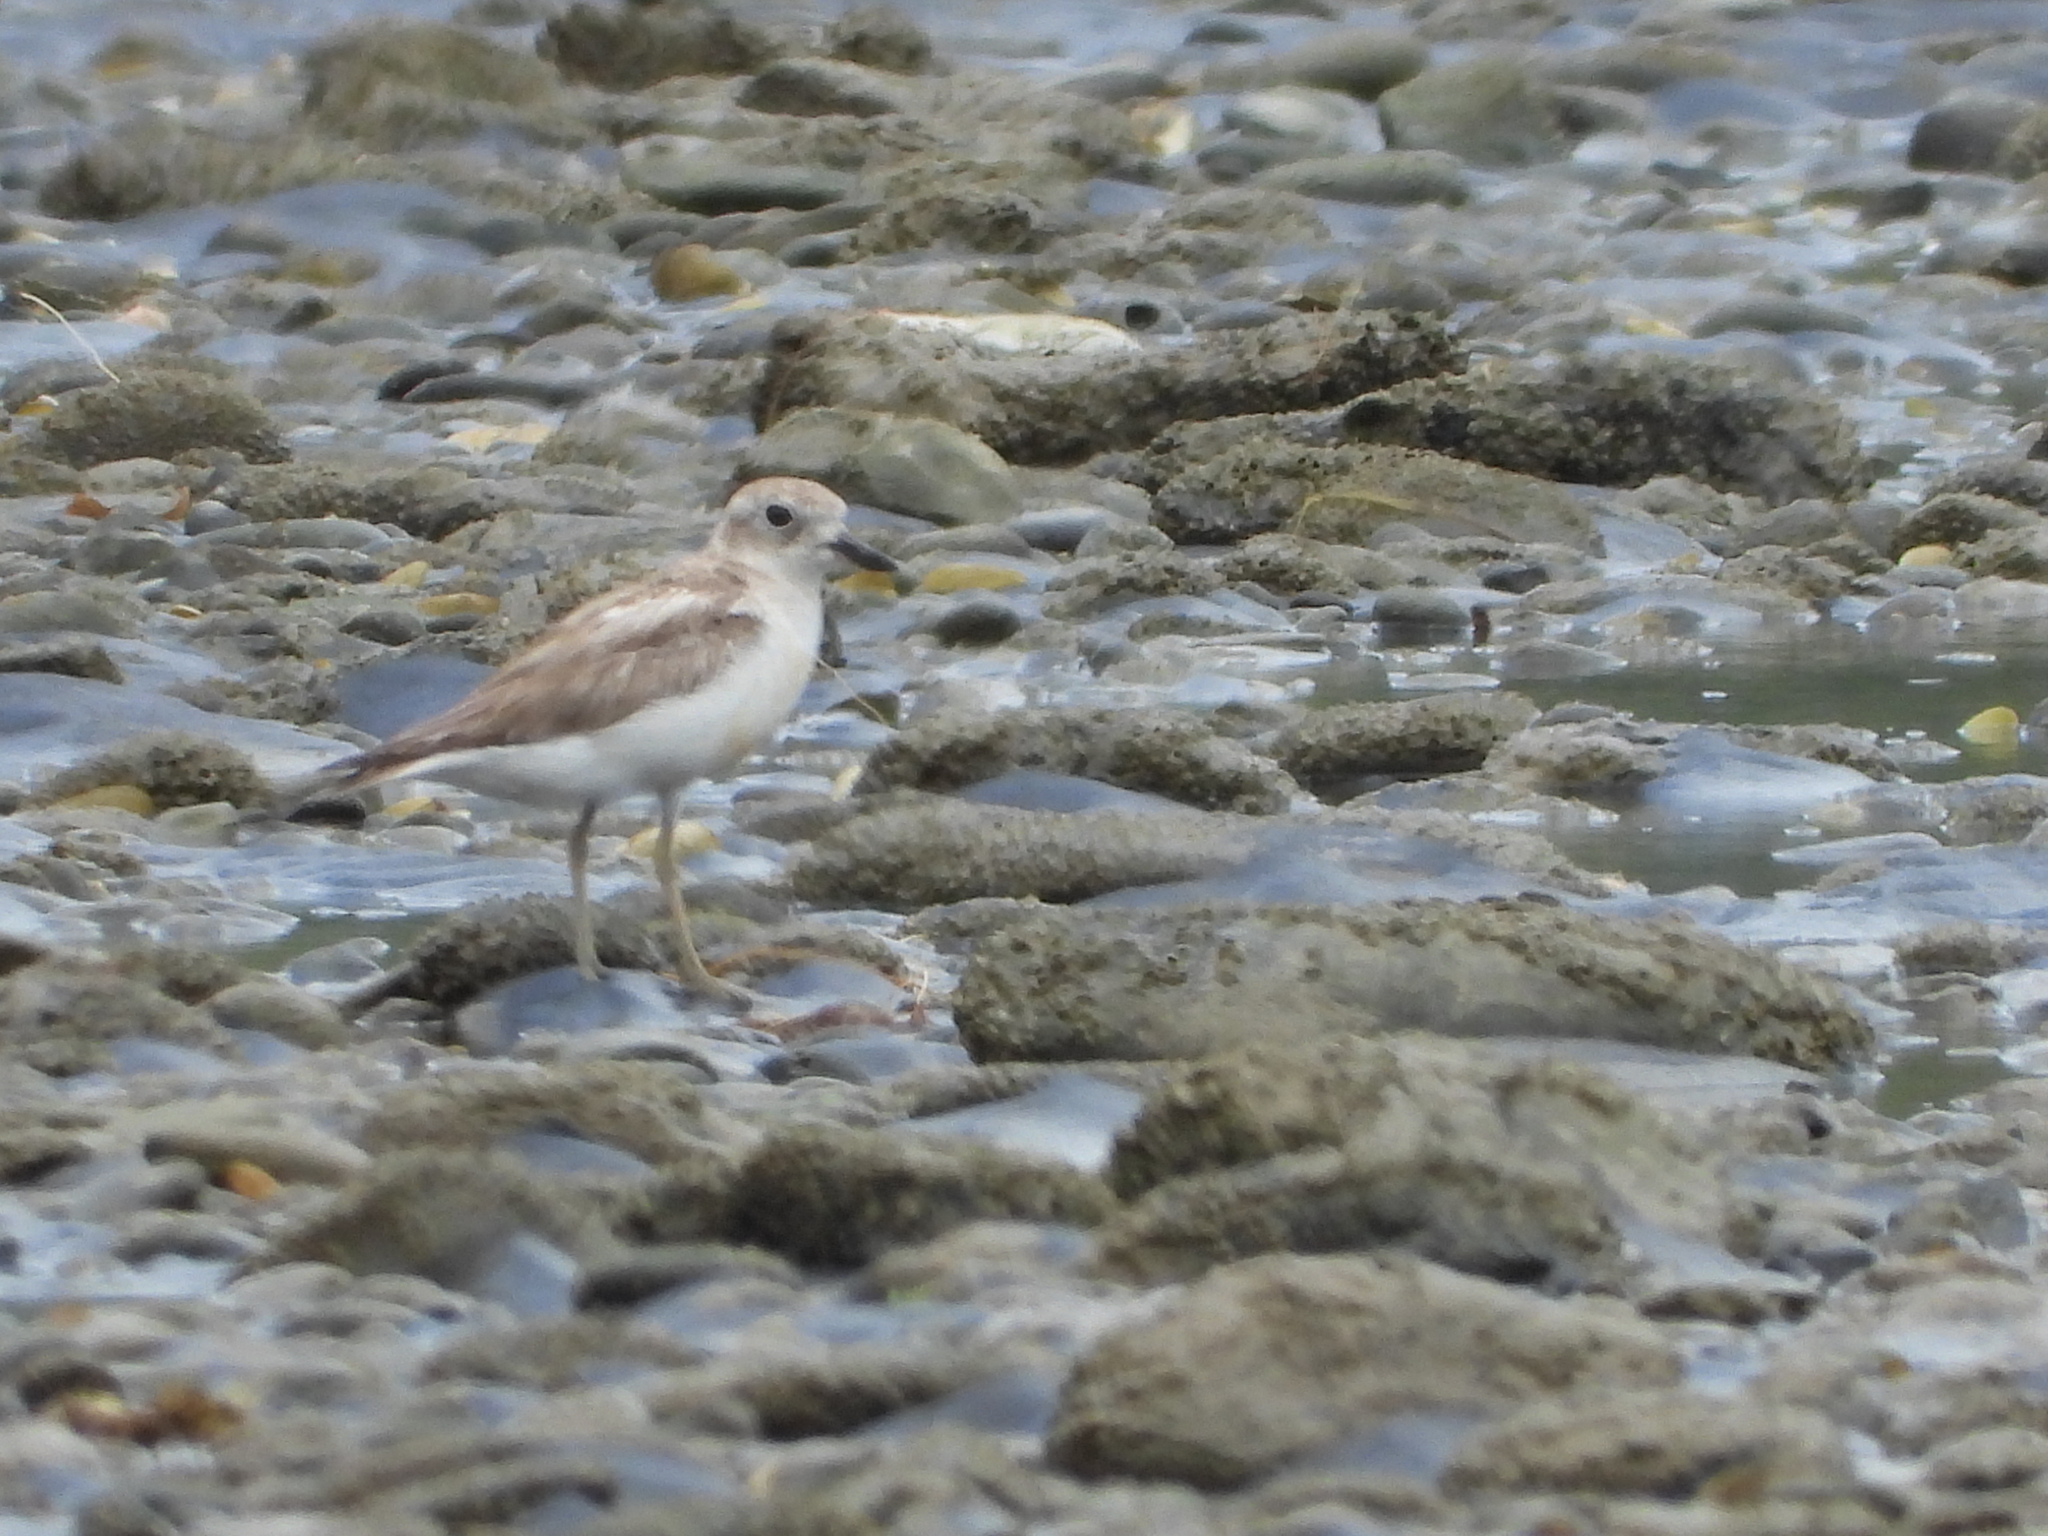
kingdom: Animalia
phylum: Chordata
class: Aves
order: Charadriiformes
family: Charadriidae
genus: Anarhynchus
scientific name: Anarhynchus
